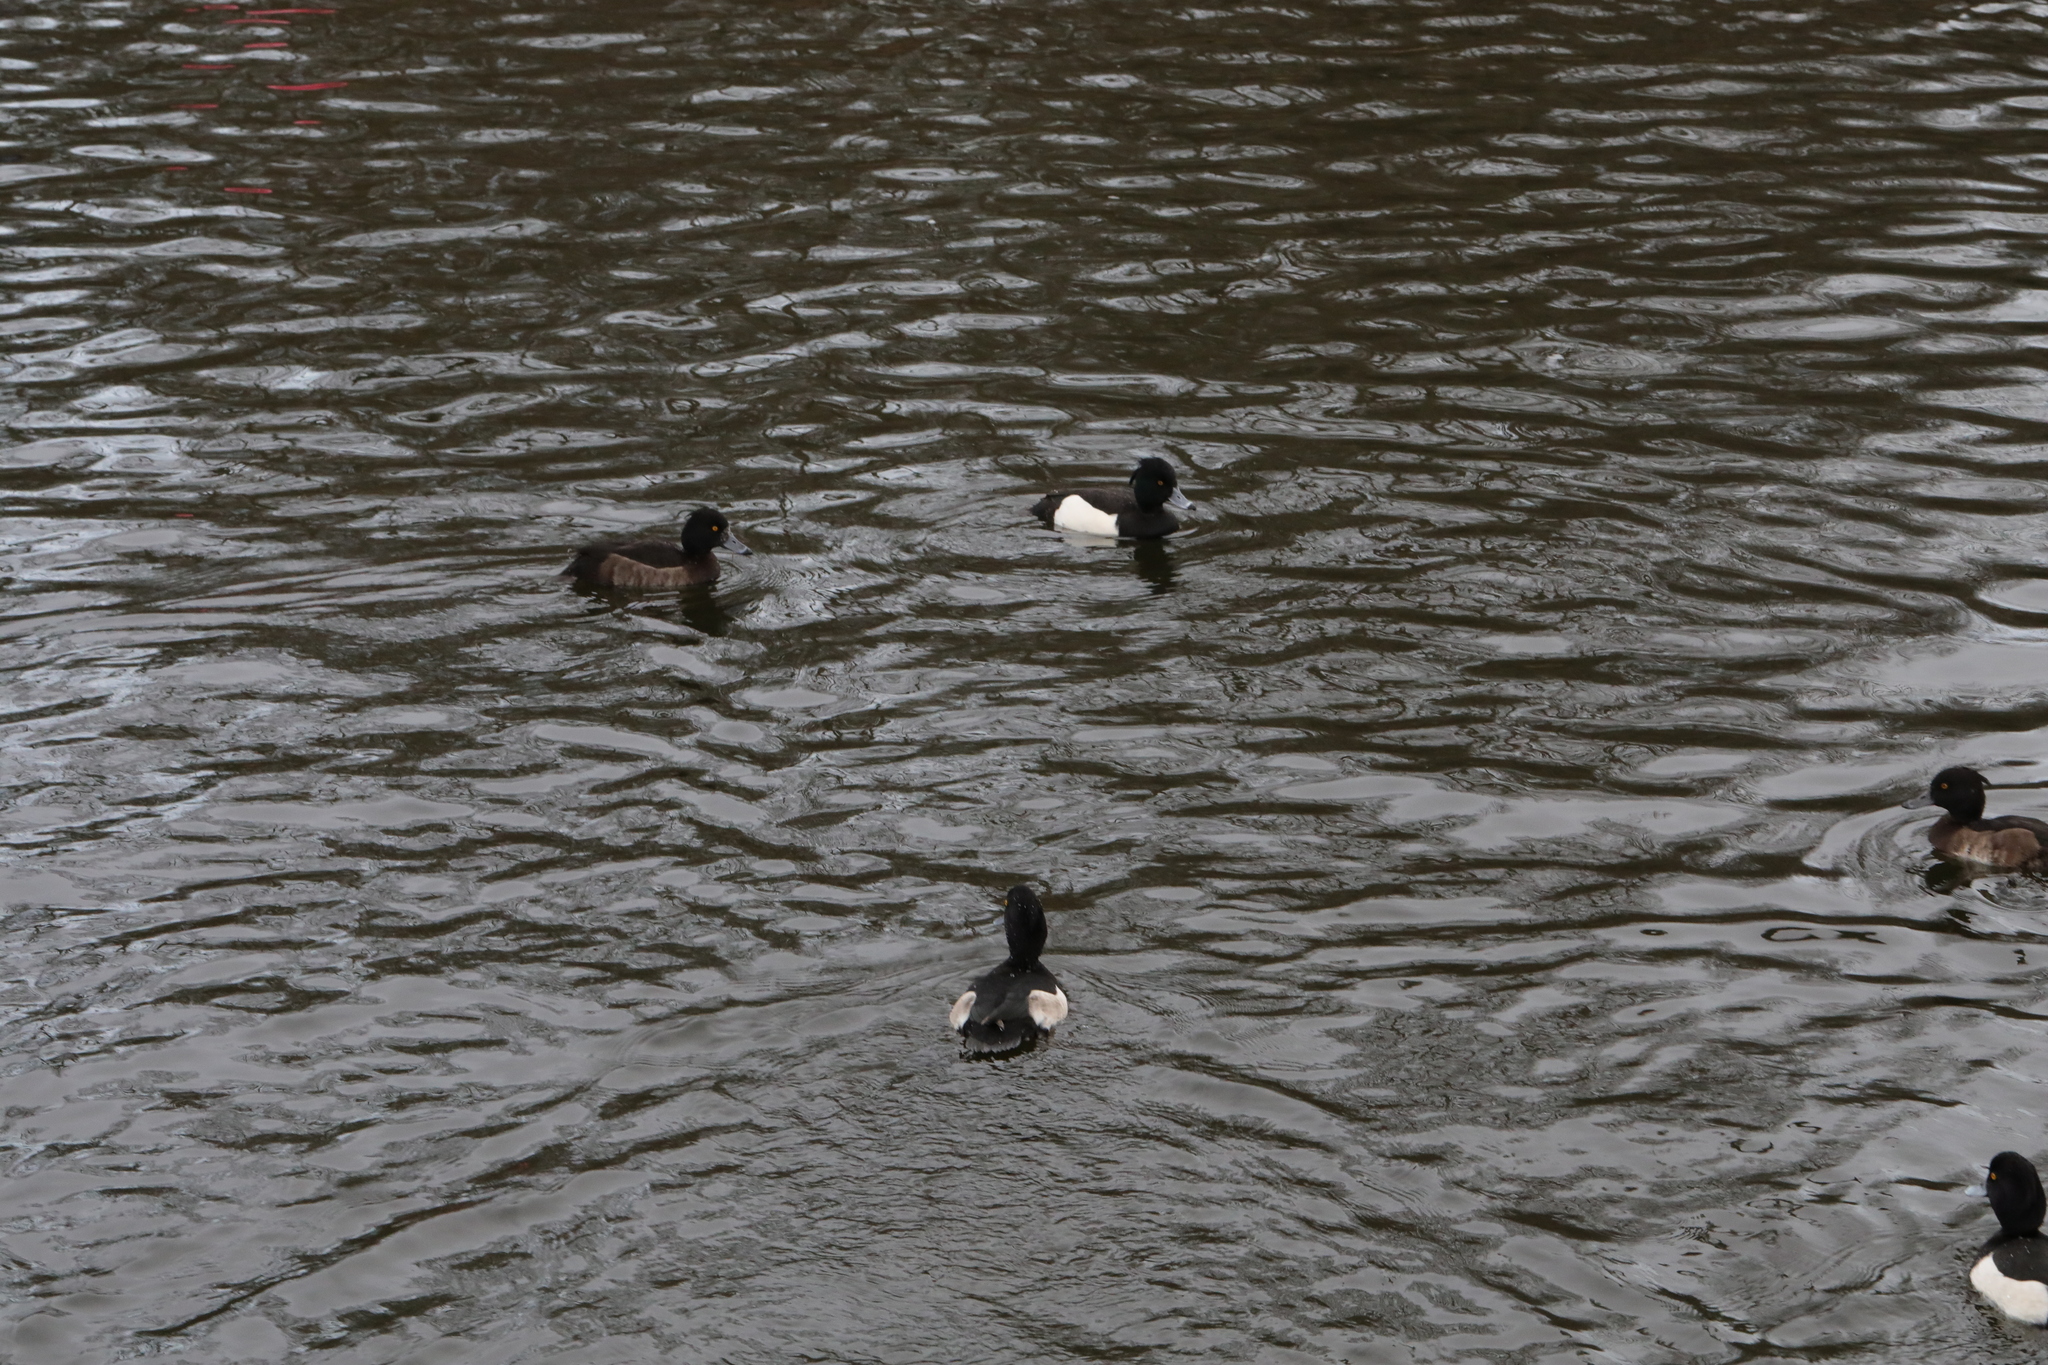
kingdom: Animalia
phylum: Chordata
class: Aves
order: Anseriformes
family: Anatidae
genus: Aythya
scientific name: Aythya fuligula
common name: Tufted duck
